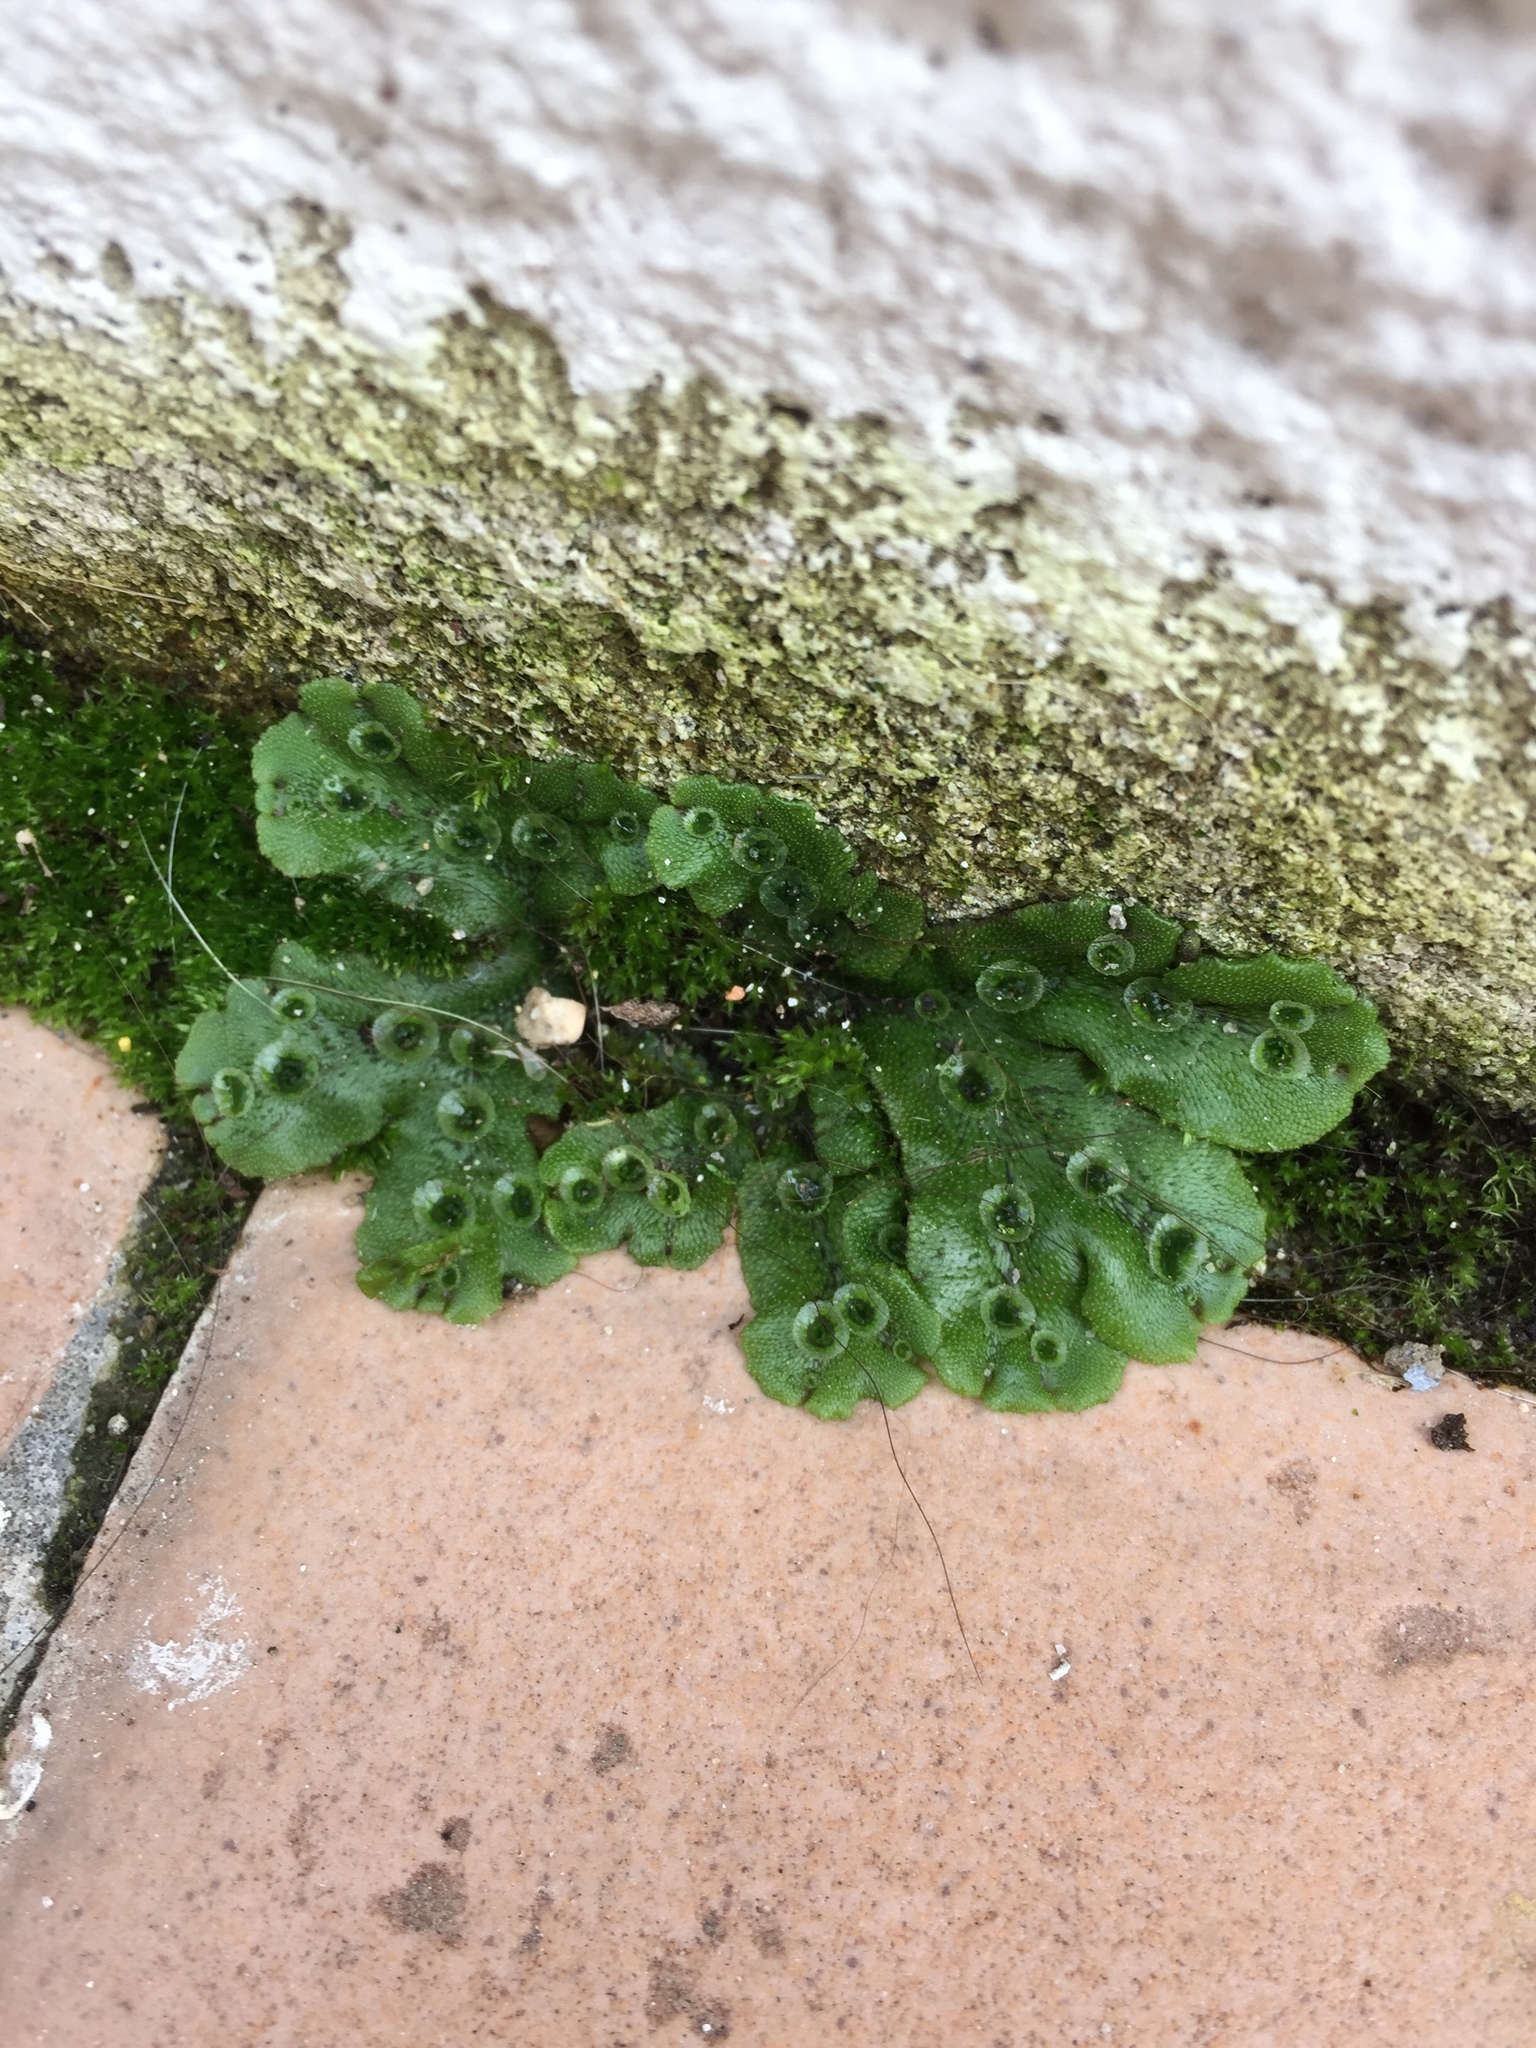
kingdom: Plantae
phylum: Marchantiophyta
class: Marchantiopsida
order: Marchantiales
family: Marchantiaceae
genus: Marchantia
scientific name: Marchantia polymorpha
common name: Common liverwort
